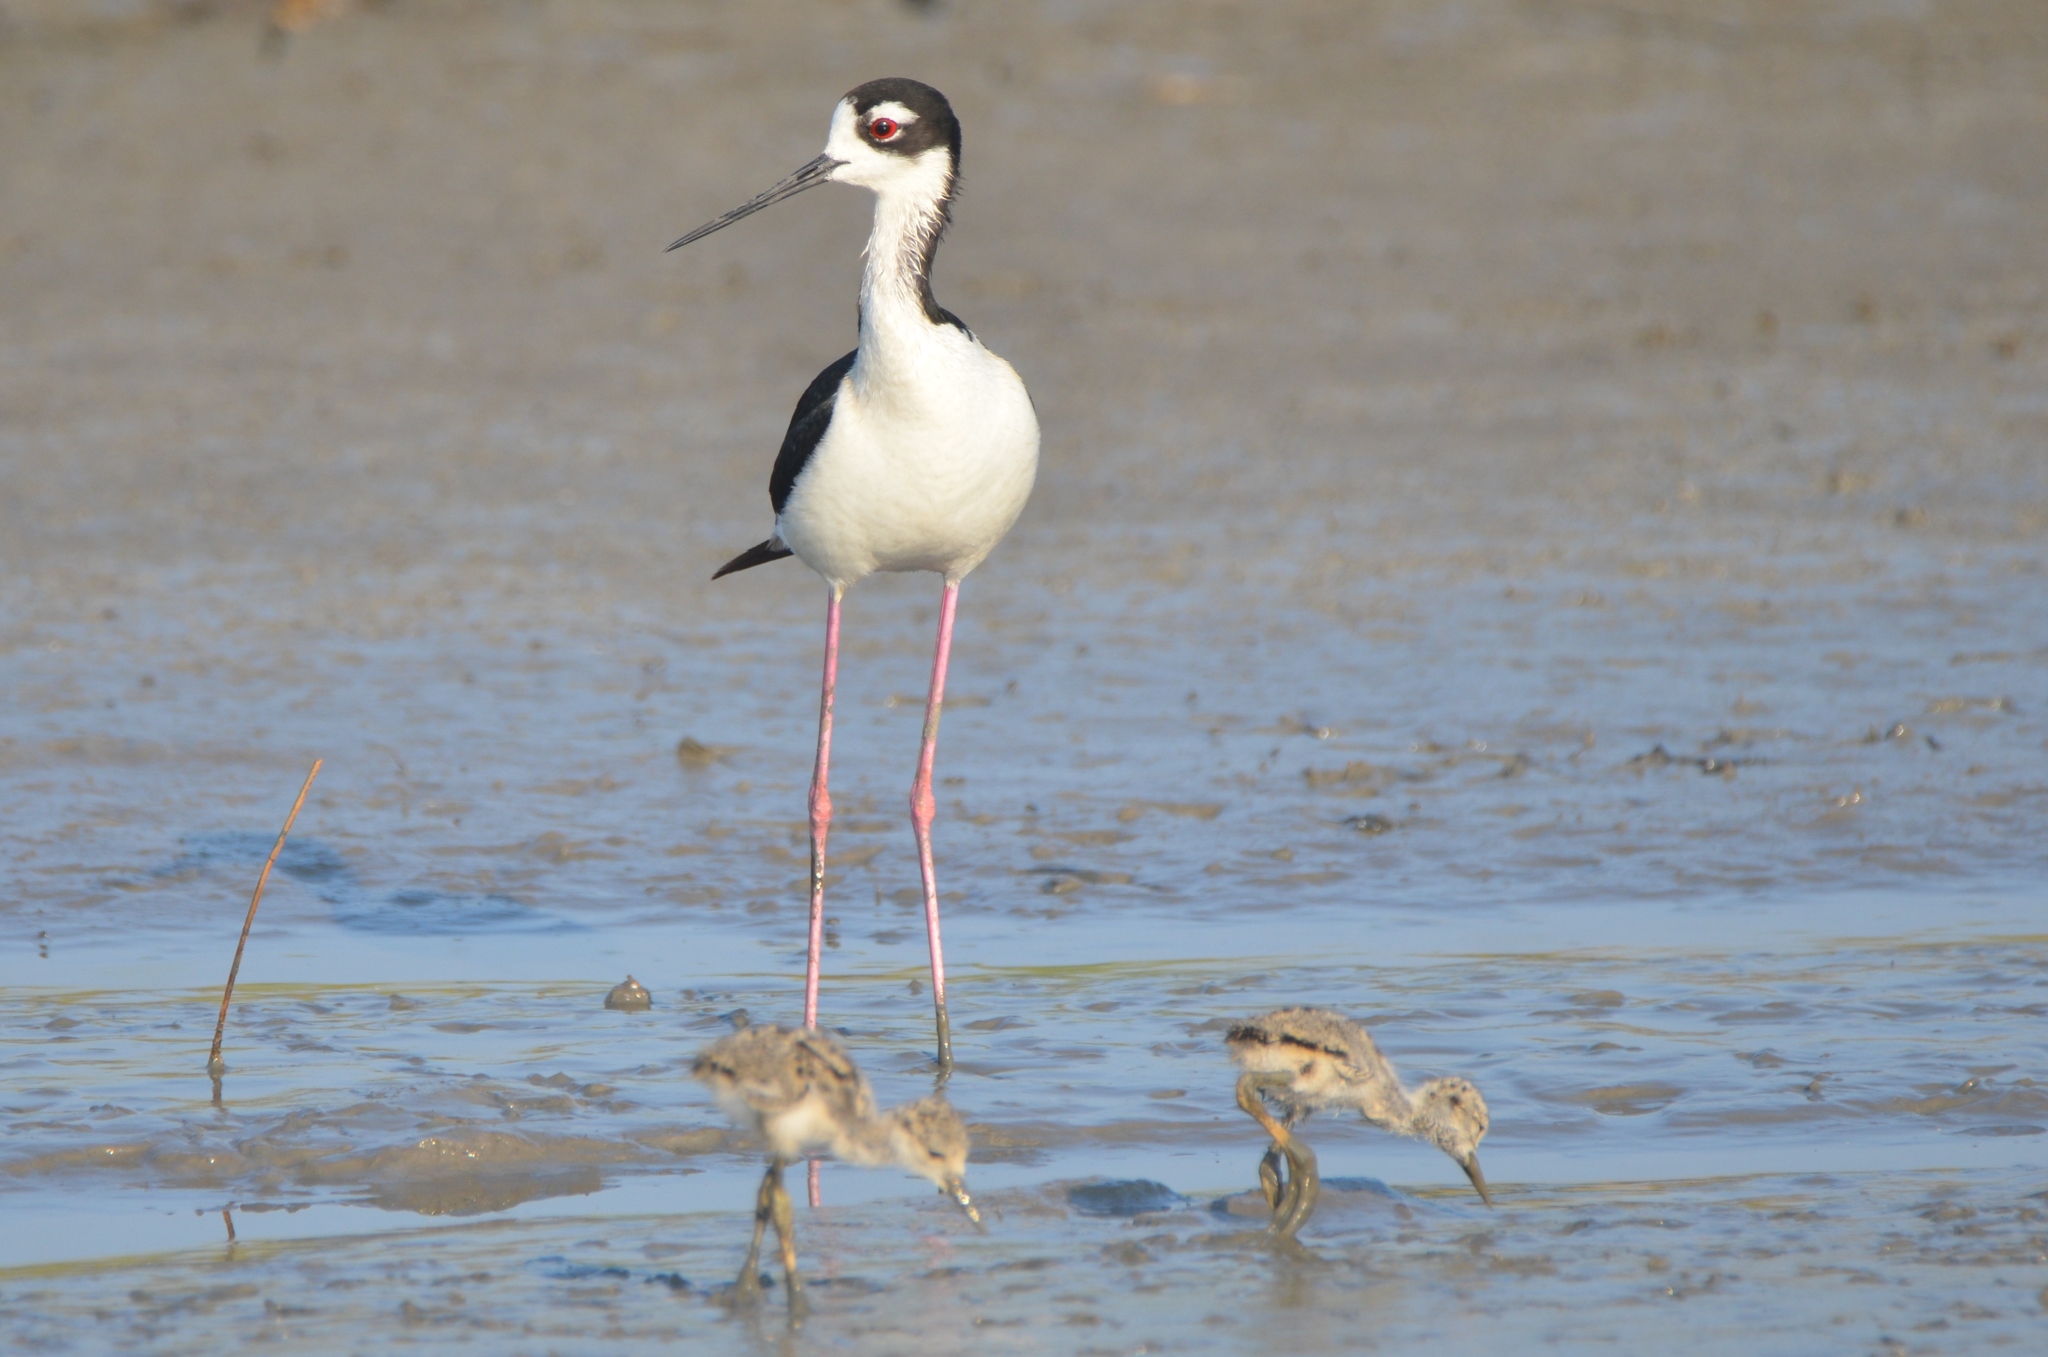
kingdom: Animalia
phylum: Chordata
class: Aves
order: Charadriiformes
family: Recurvirostridae
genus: Himantopus
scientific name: Himantopus mexicanus
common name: Black-necked stilt
